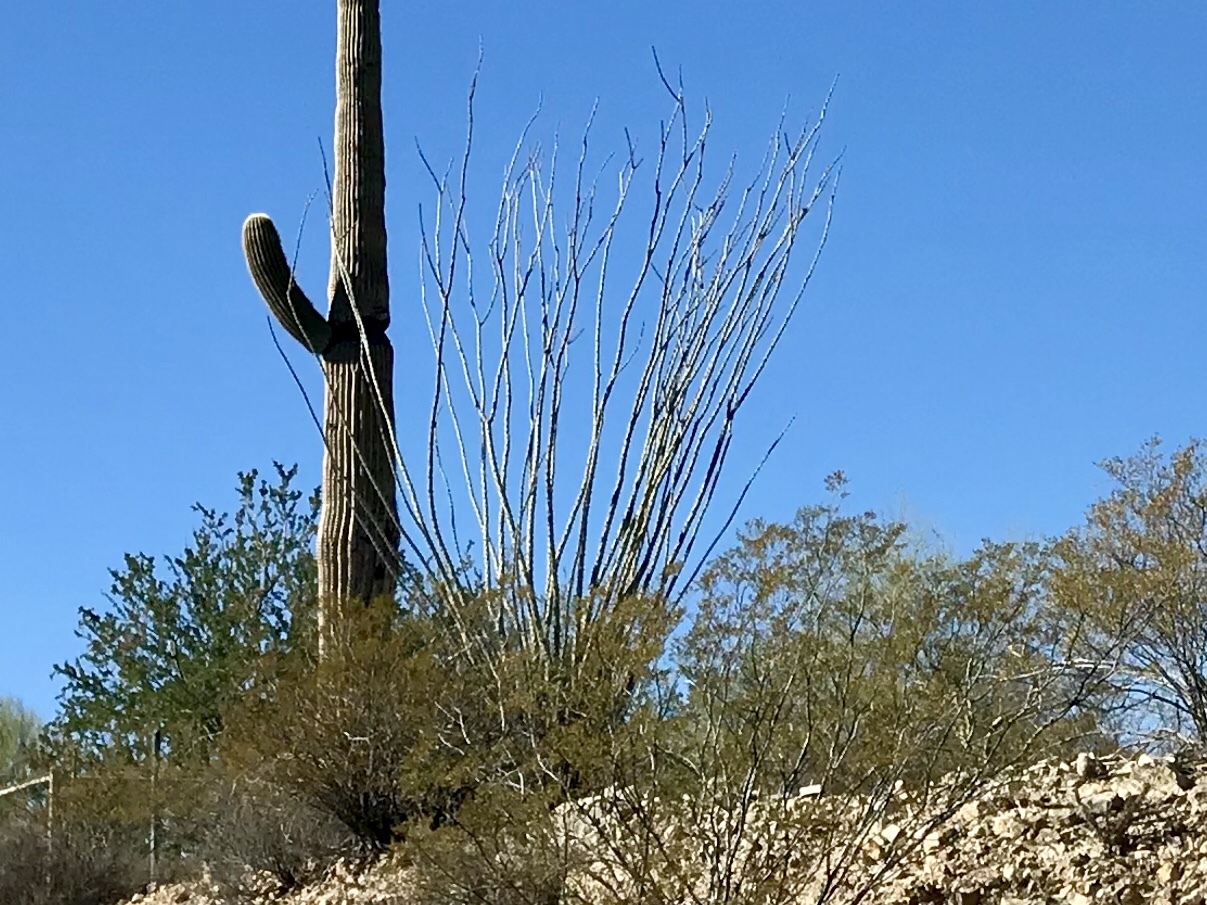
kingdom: Plantae
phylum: Tracheophyta
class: Magnoliopsida
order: Ericales
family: Fouquieriaceae
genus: Fouquieria
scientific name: Fouquieria splendens
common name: Vine-cactus
